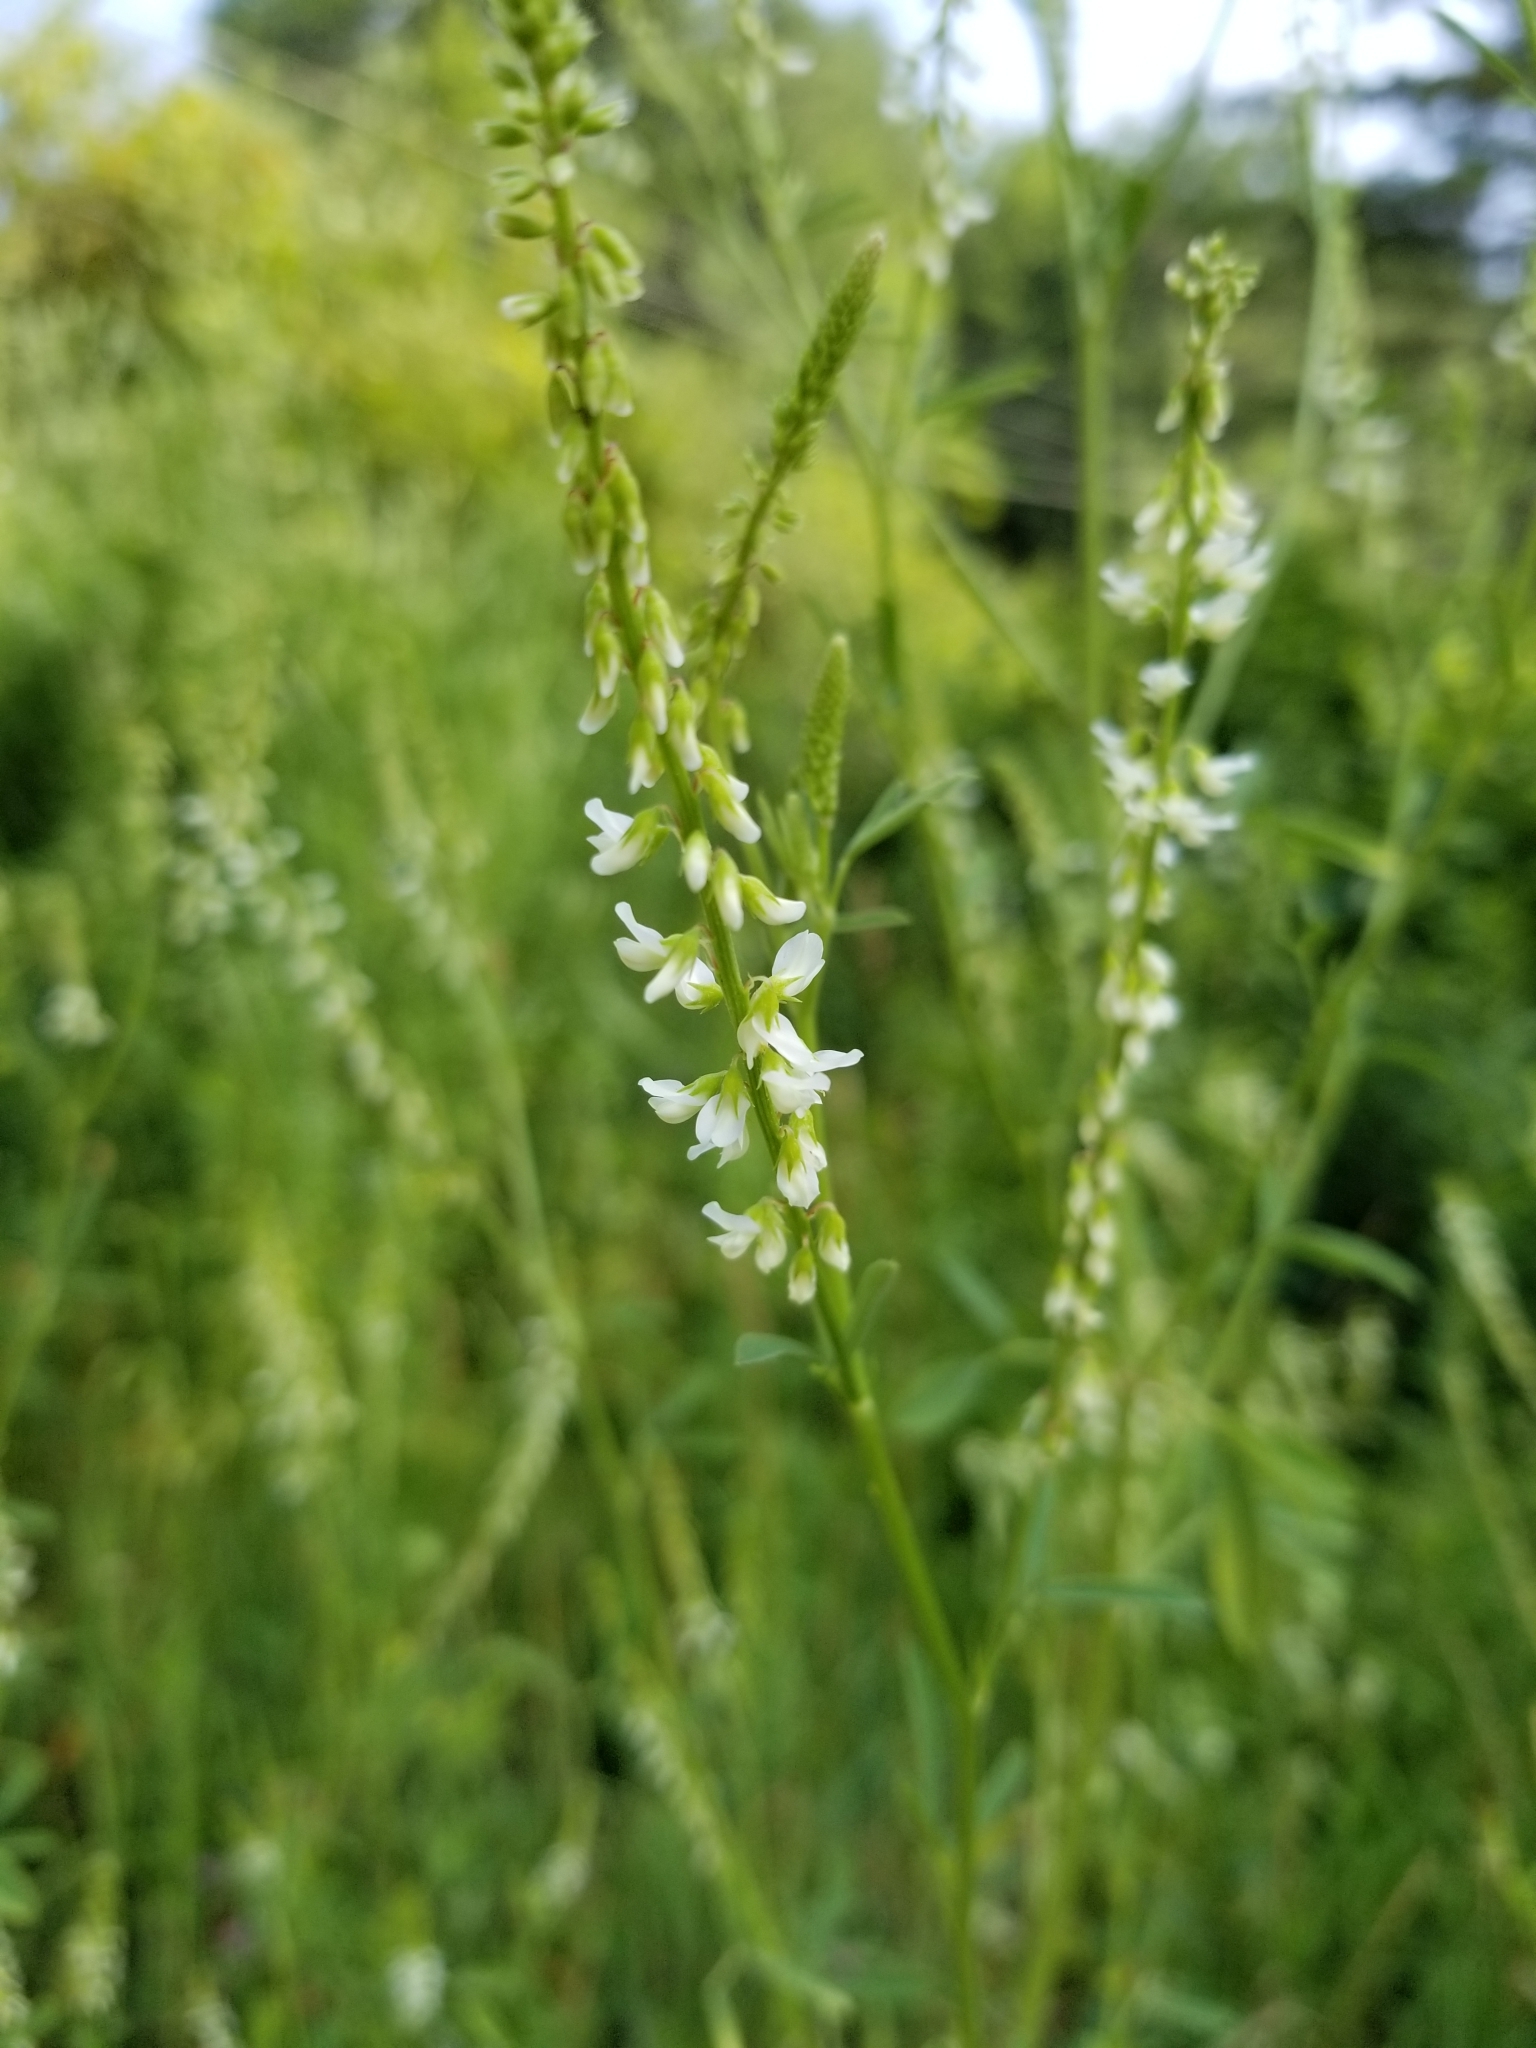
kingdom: Plantae
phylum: Tracheophyta
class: Magnoliopsida
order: Fabales
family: Fabaceae
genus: Melilotus
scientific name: Melilotus albus
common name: White melilot
